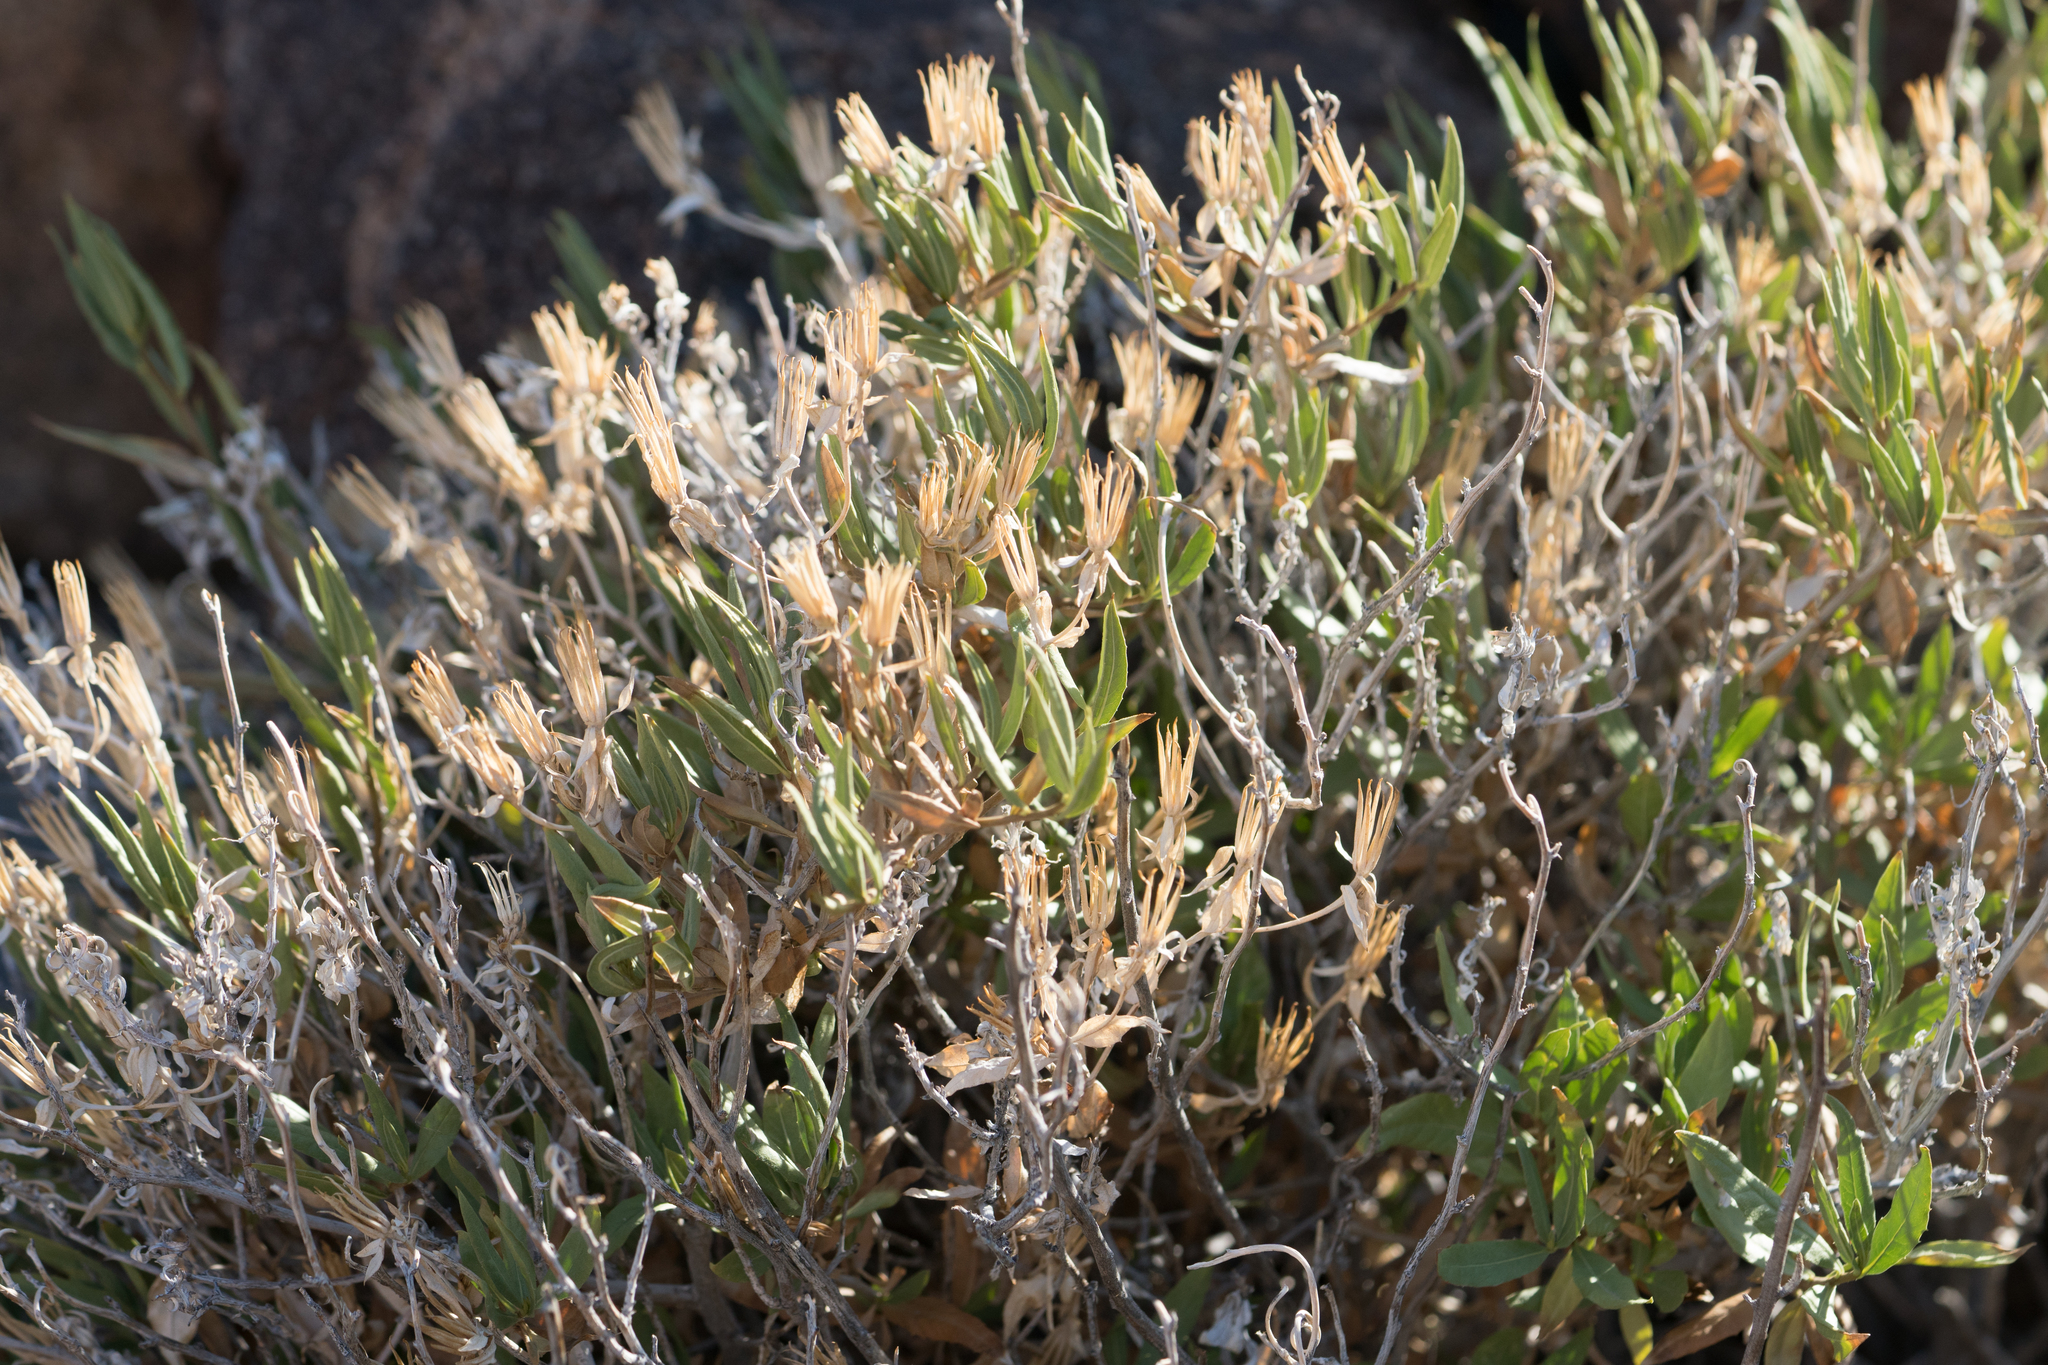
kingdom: Plantae
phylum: Tracheophyta
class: Magnoliopsida
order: Asterales
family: Asteraceae
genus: Trixis
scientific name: Trixis californica
